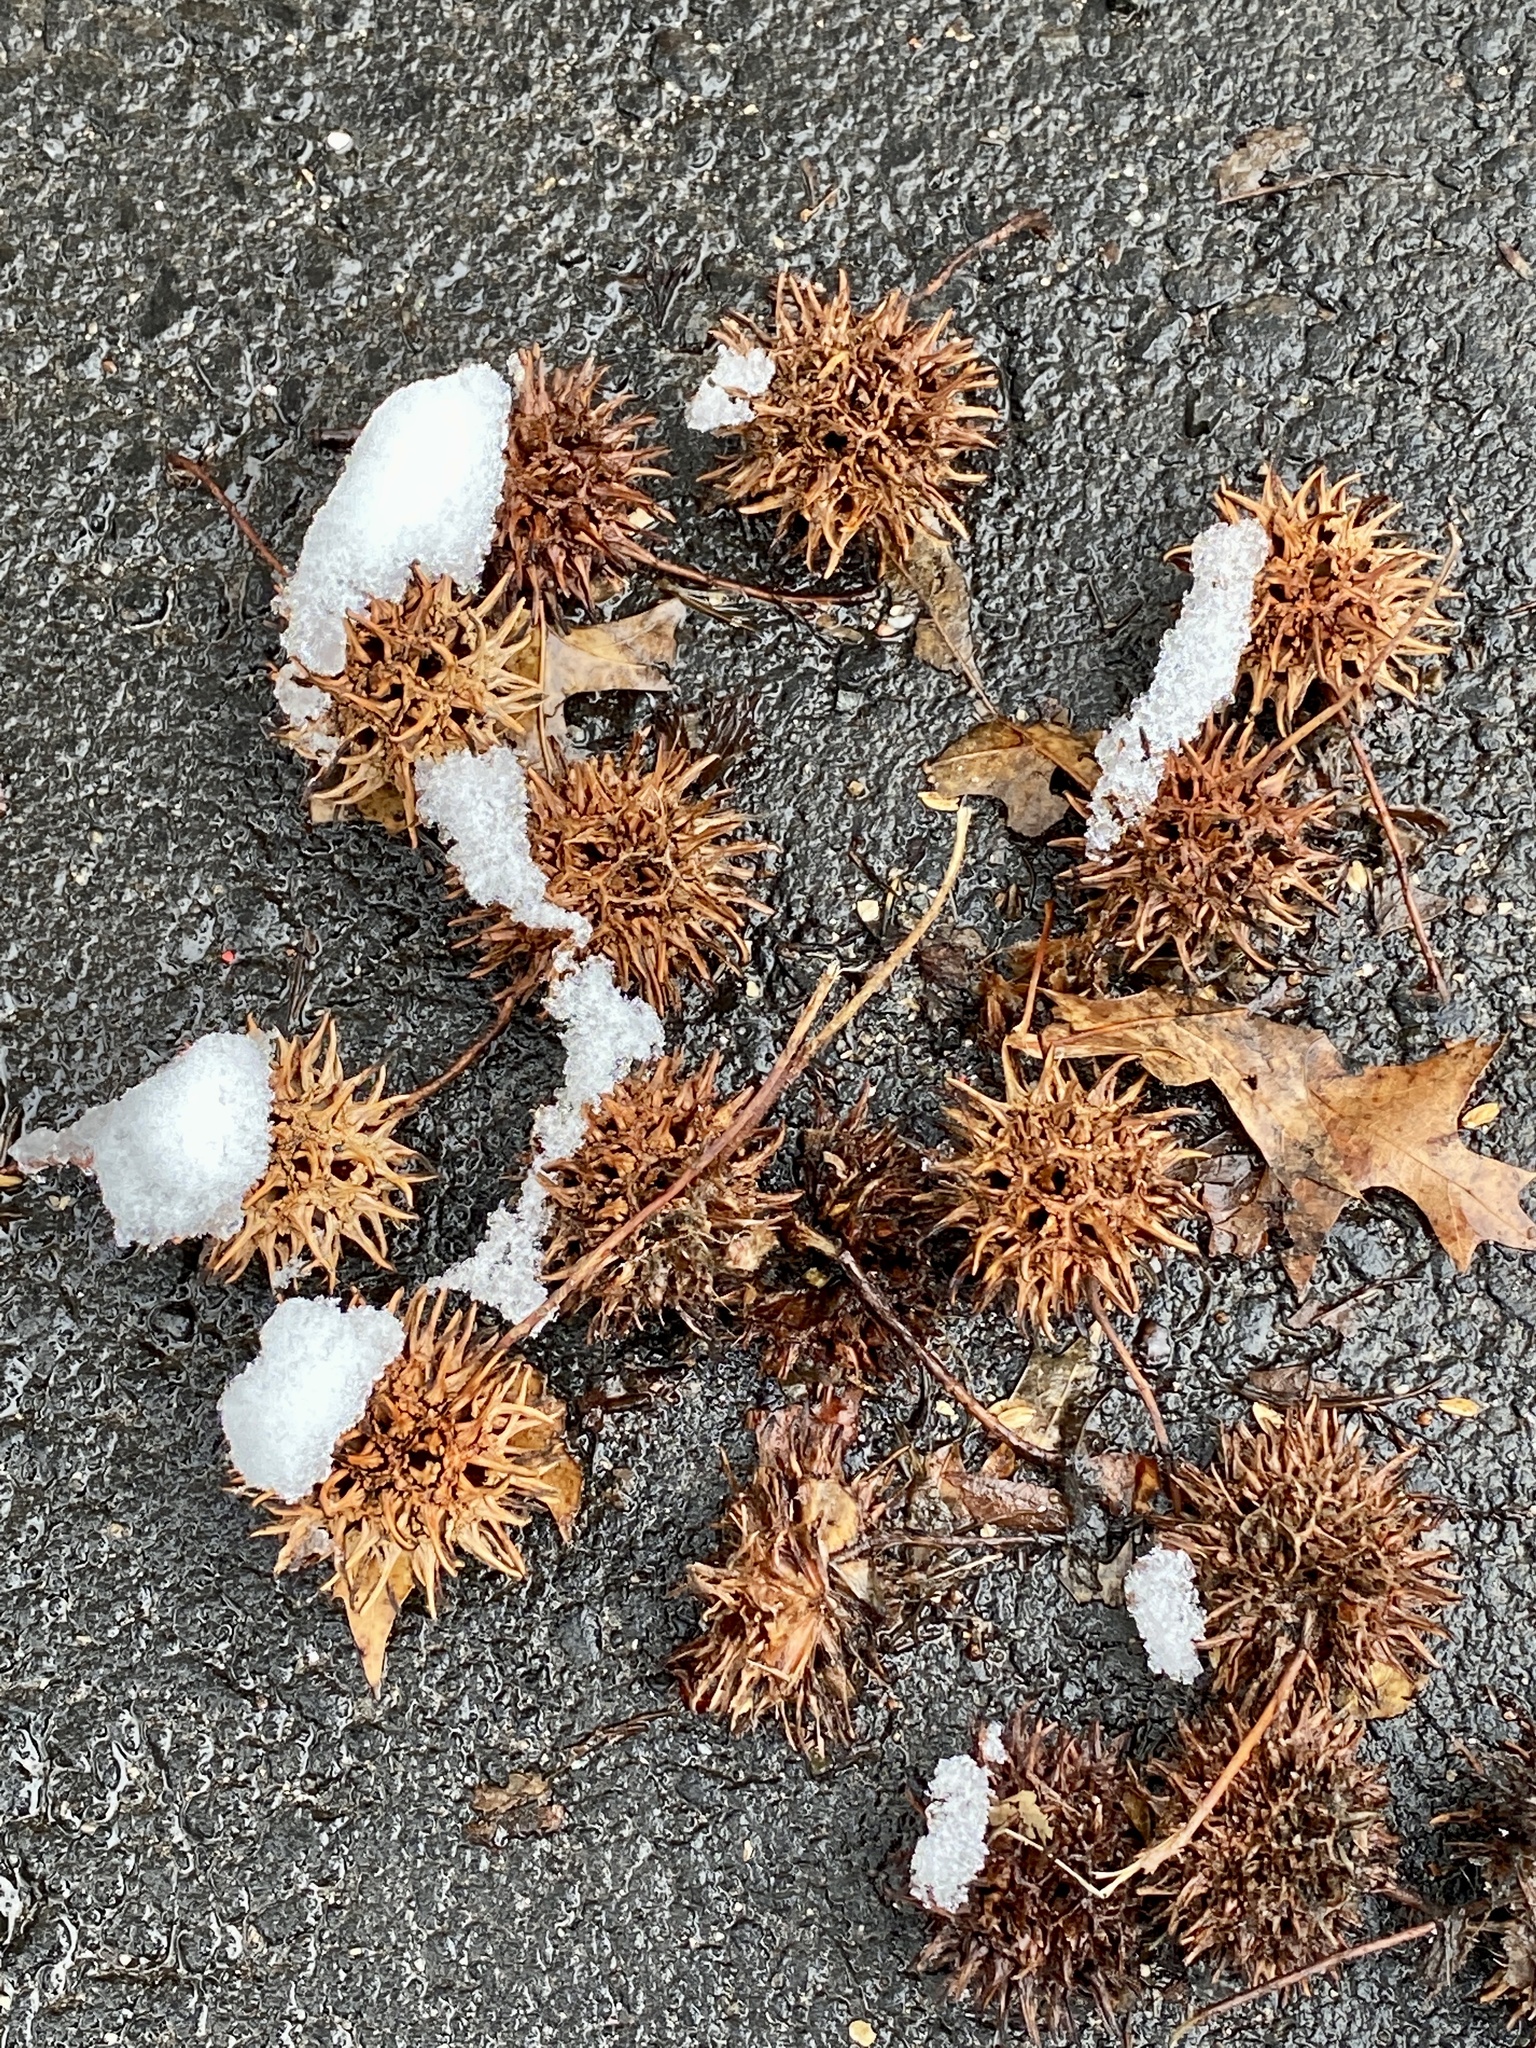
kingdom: Plantae
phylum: Tracheophyta
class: Magnoliopsida
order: Saxifragales
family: Altingiaceae
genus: Liquidambar
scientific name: Liquidambar styraciflua
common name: Sweet gum
